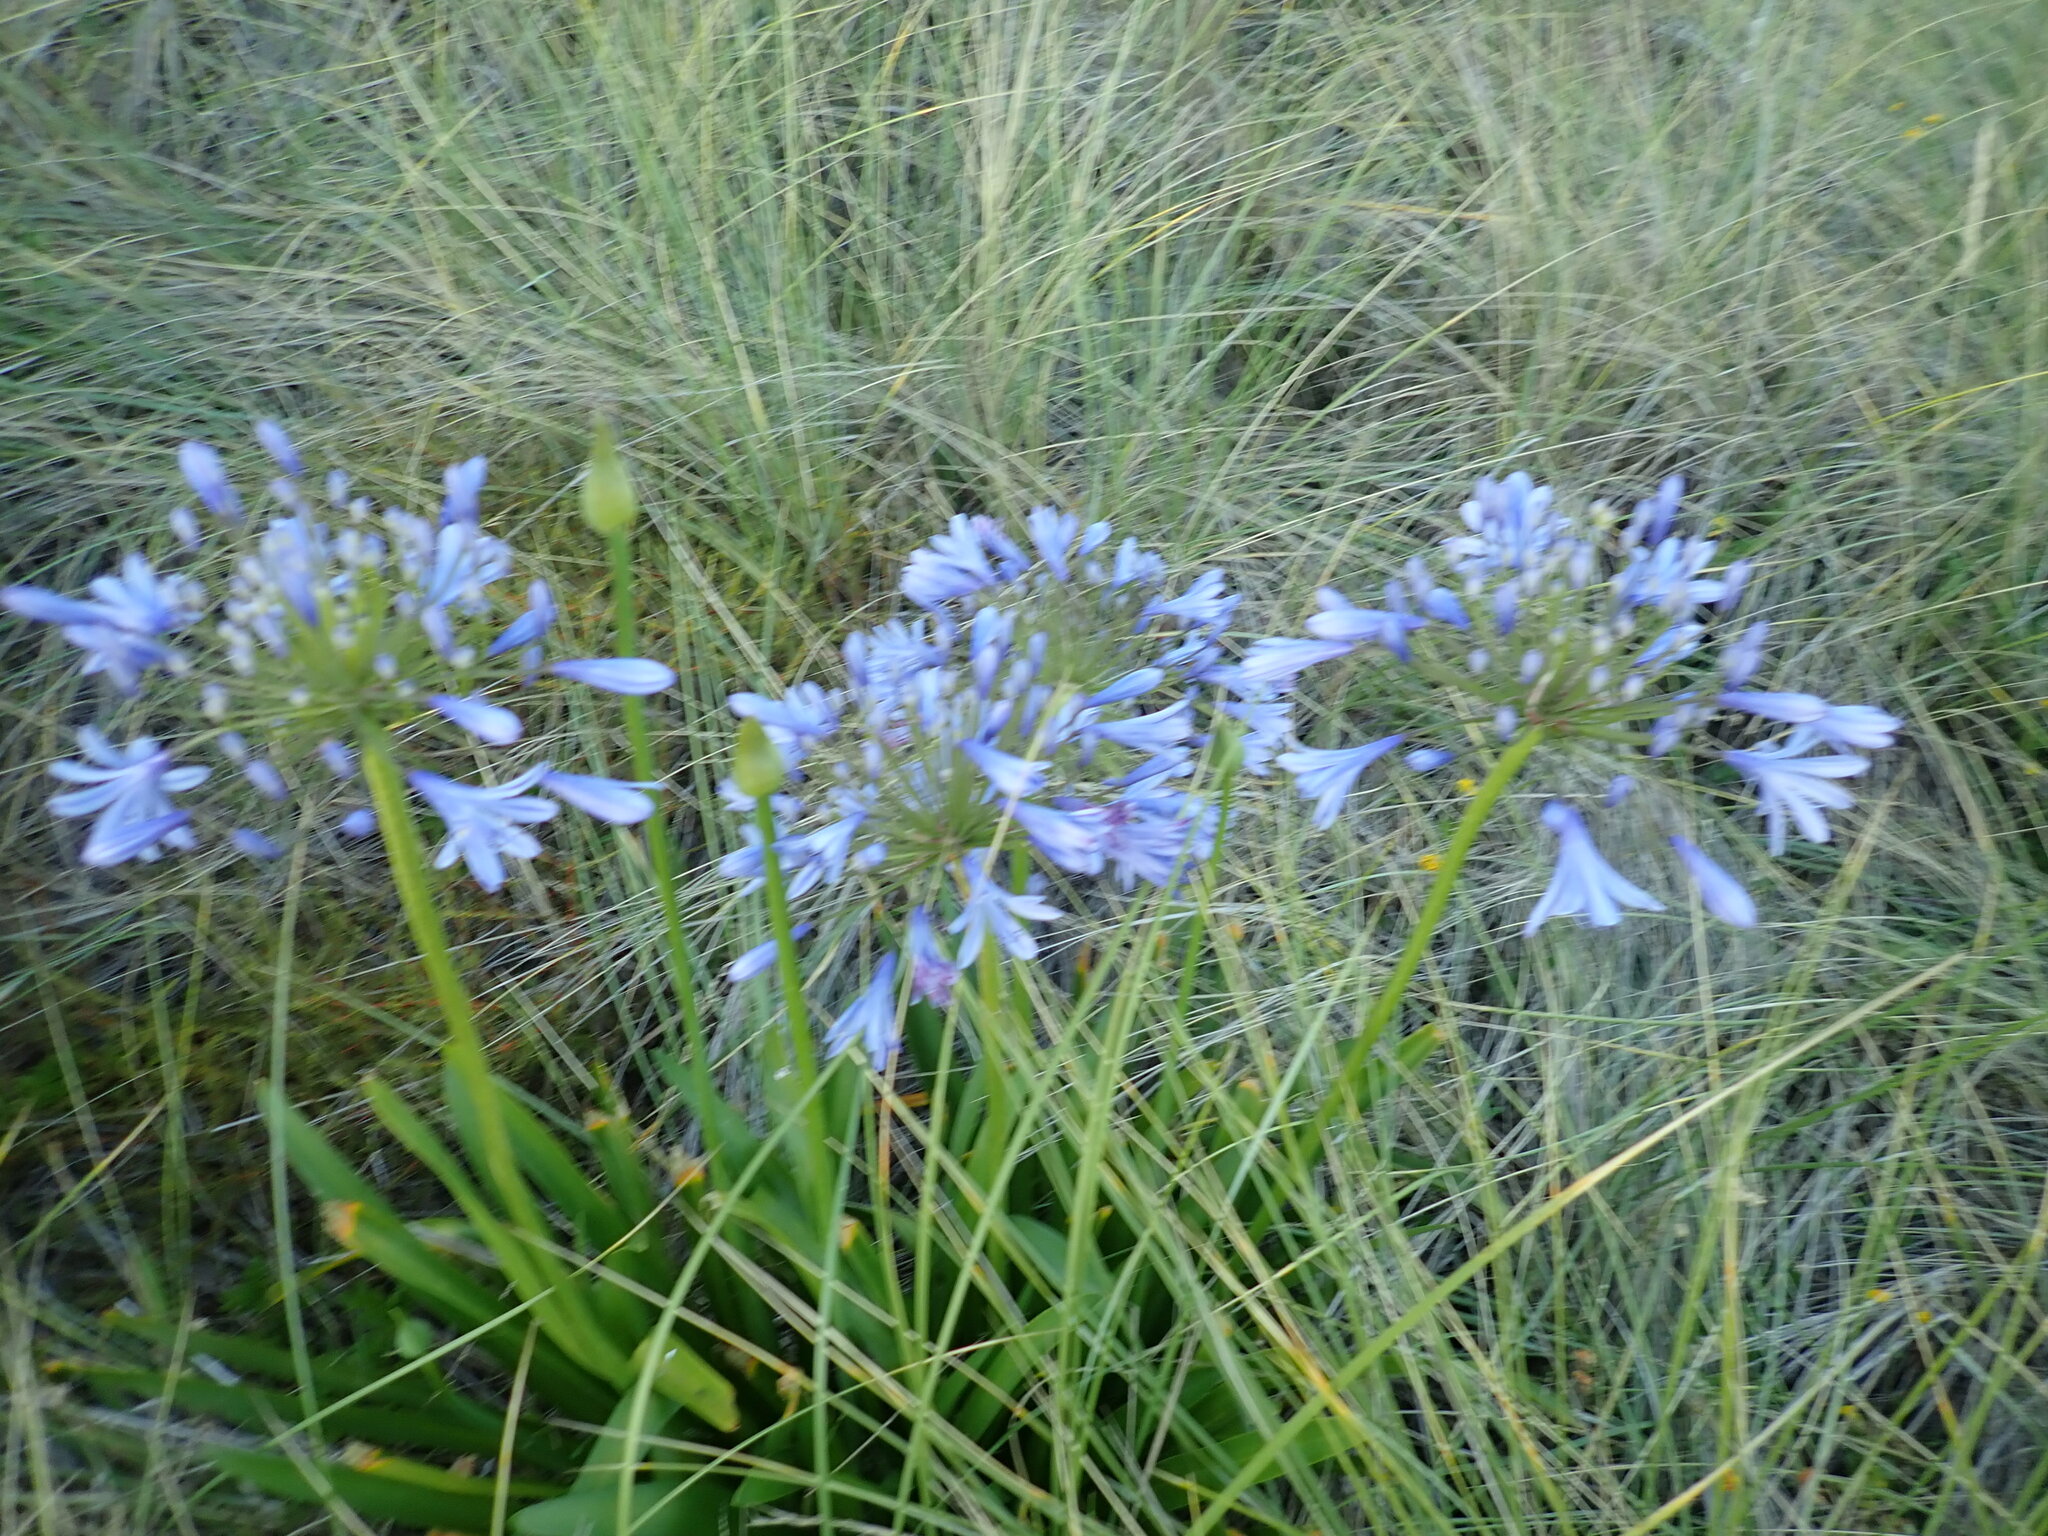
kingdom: Plantae
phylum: Tracheophyta
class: Liliopsida
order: Asparagales
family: Amaryllidaceae
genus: Agapanthus
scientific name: Agapanthus praecox
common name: African-lily
